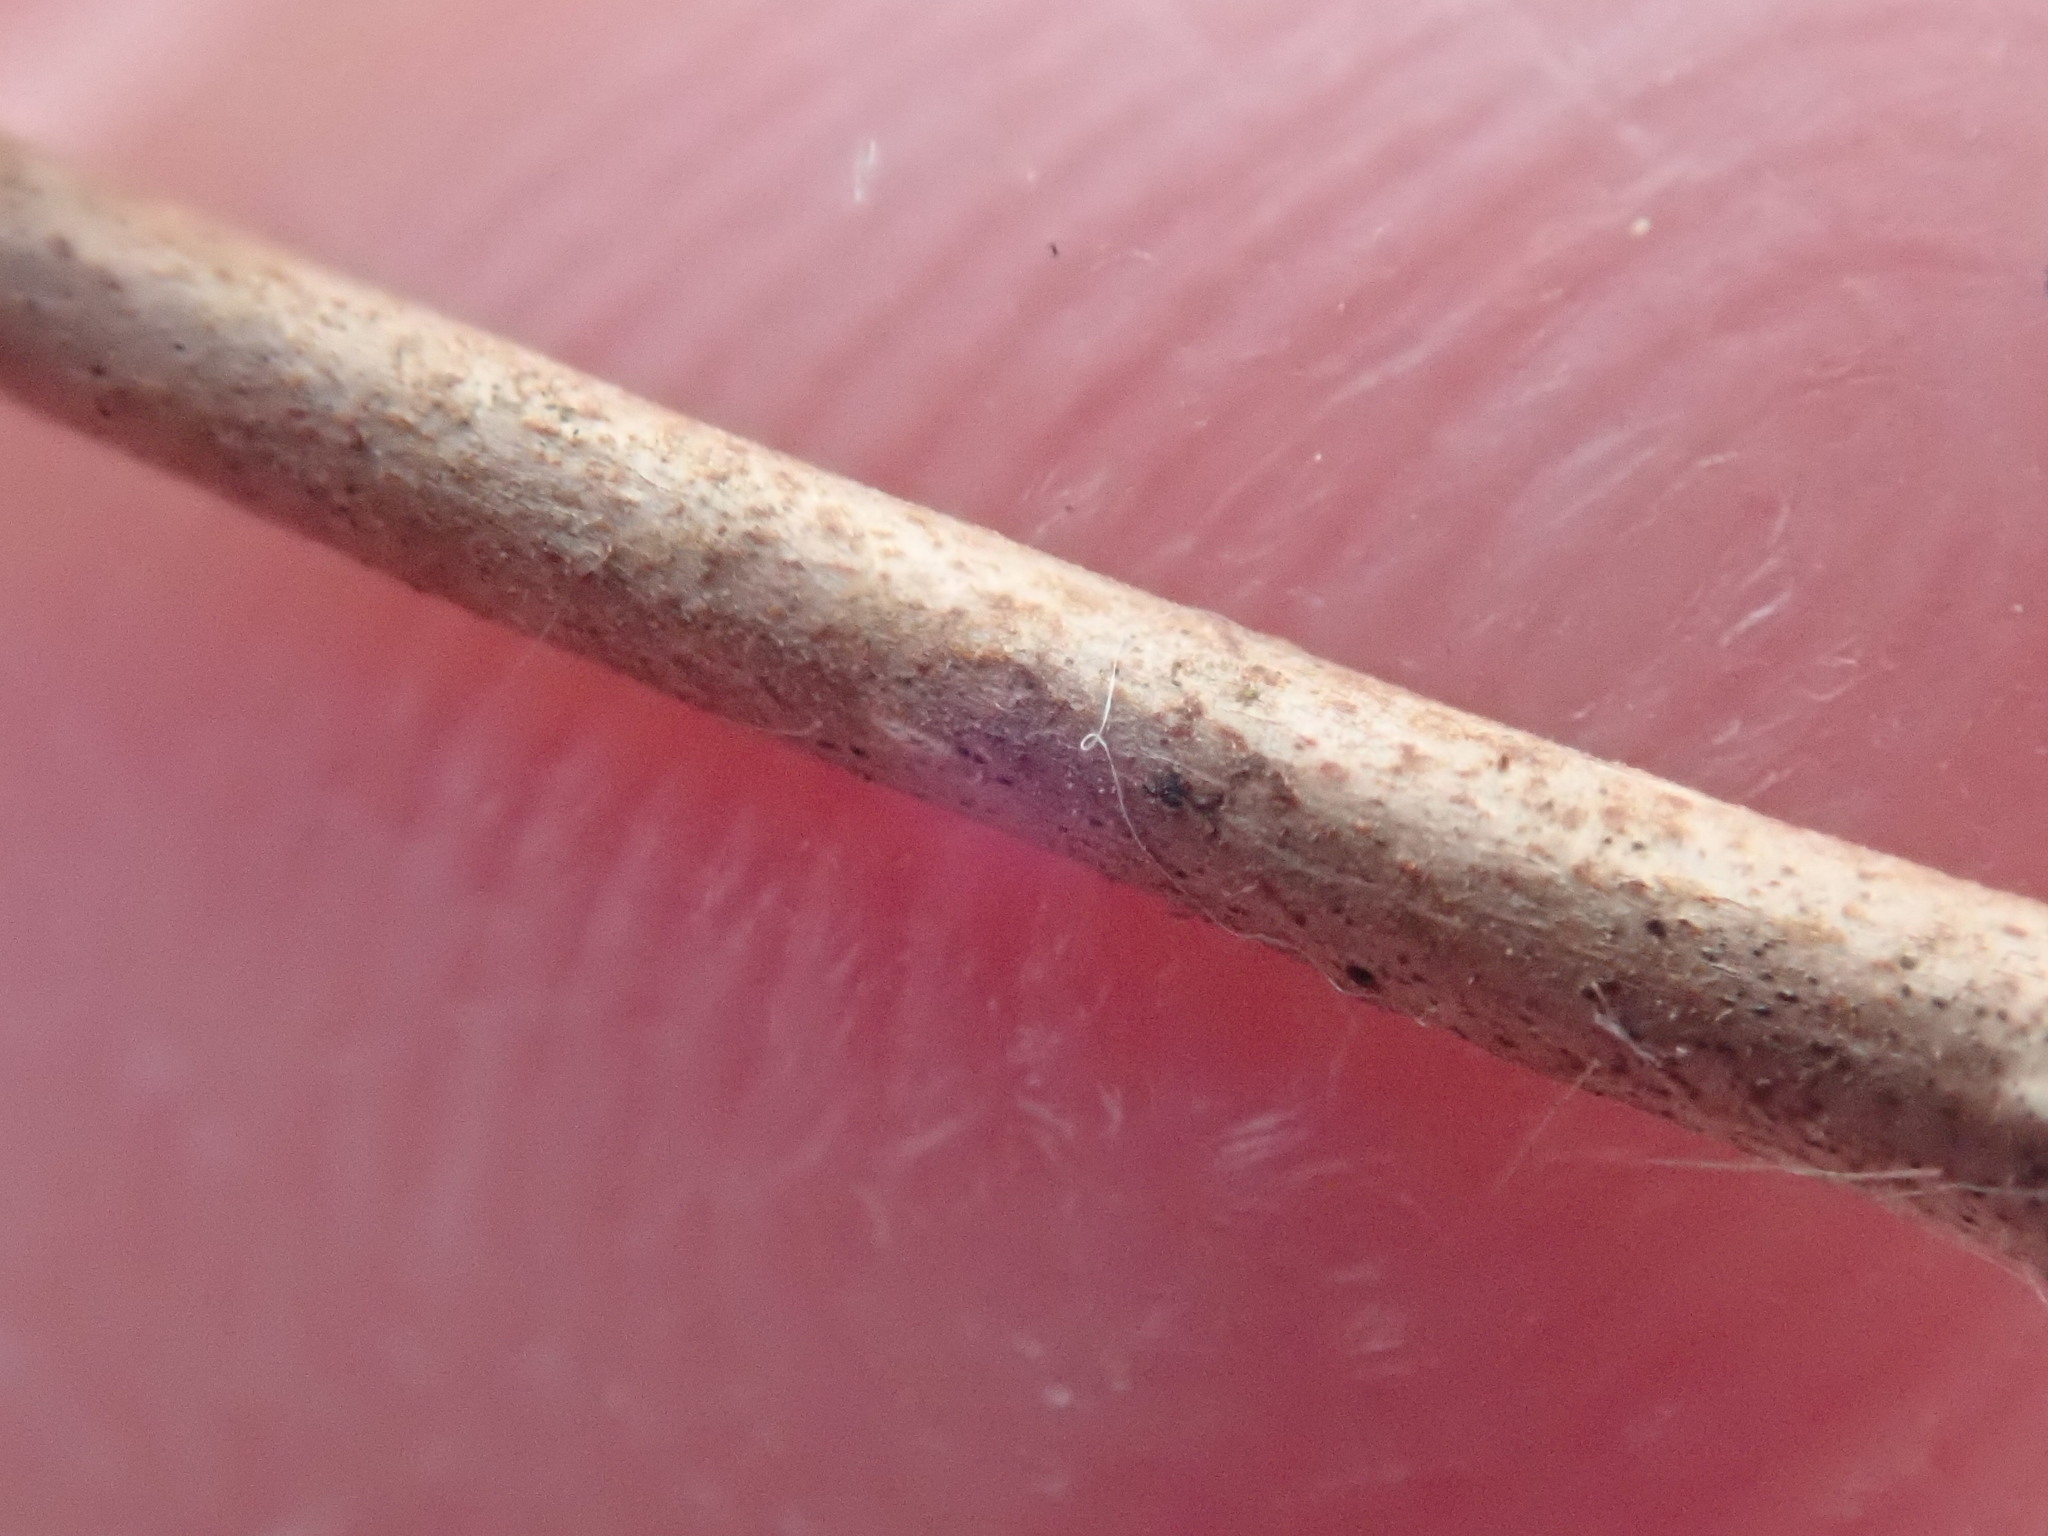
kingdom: Plantae
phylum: Tracheophyta
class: Magnoliopsida
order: Fagales
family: Betulaceae
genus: Corylus
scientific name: Corylus cornuta
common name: Beaked hazel
